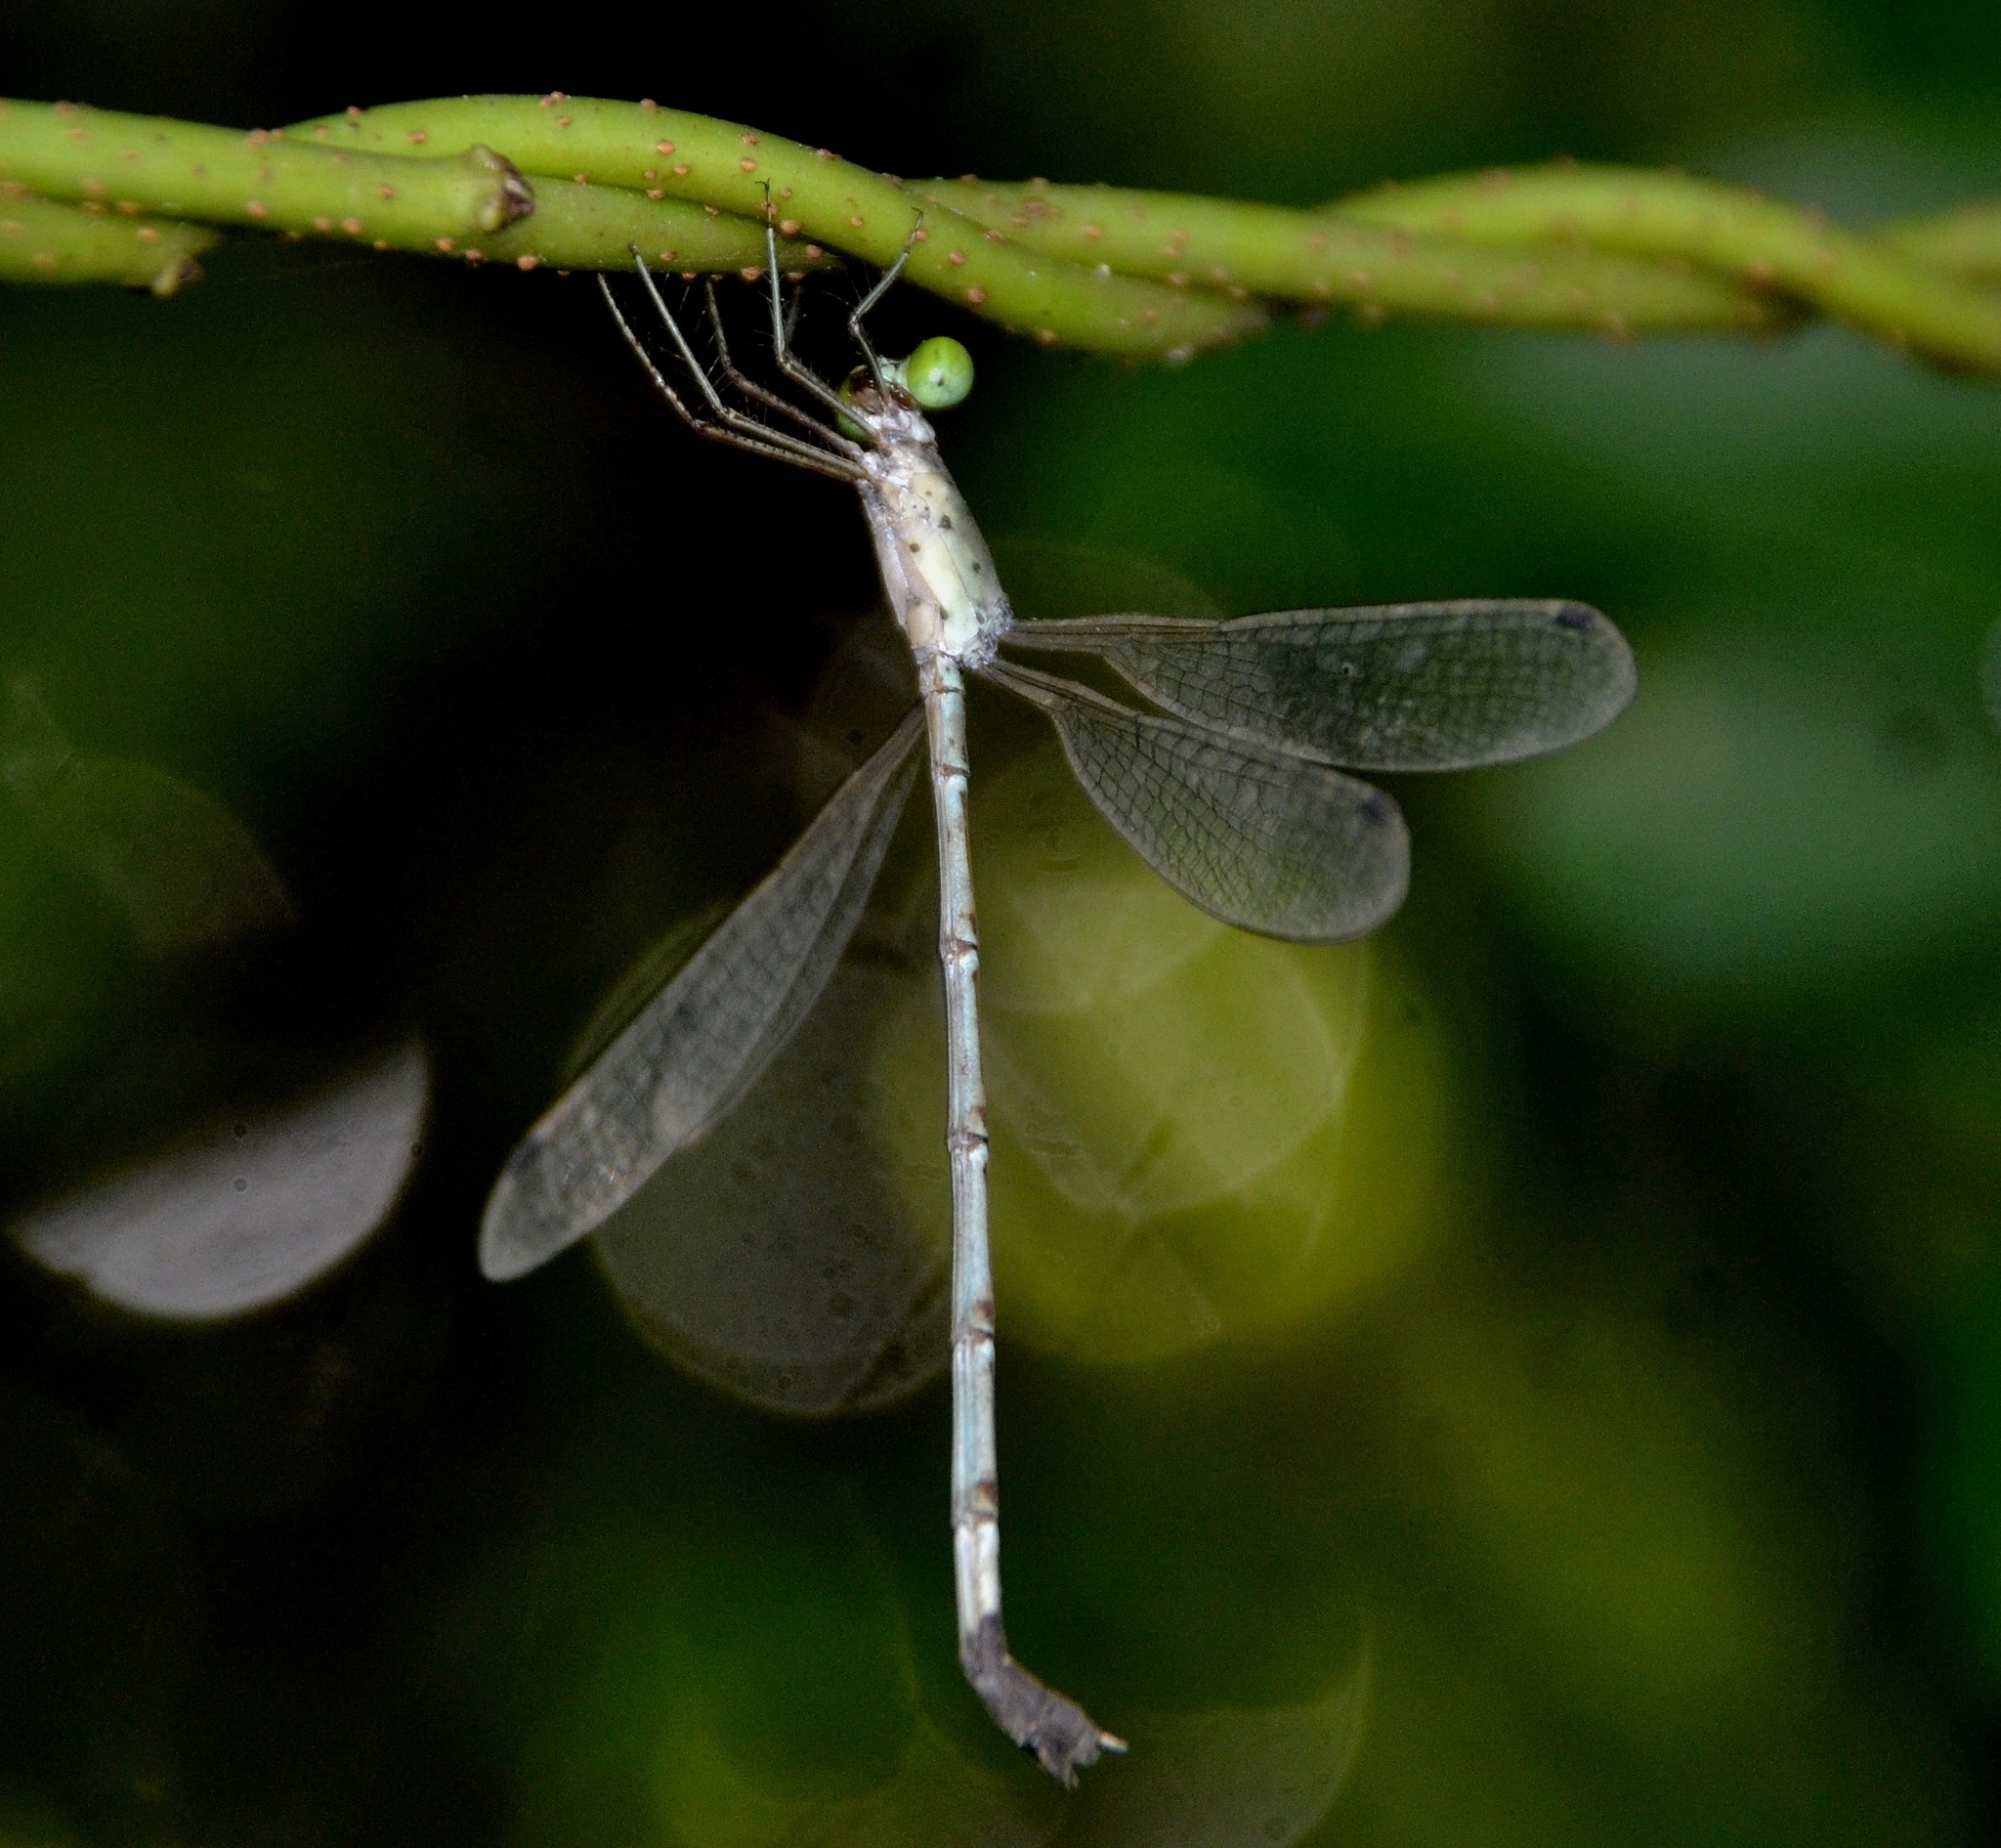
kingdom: Animalia
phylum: Arthropoda
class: Insecta
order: Odonata
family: Lestidae
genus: Platylestes
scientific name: Platylestes platystylus
